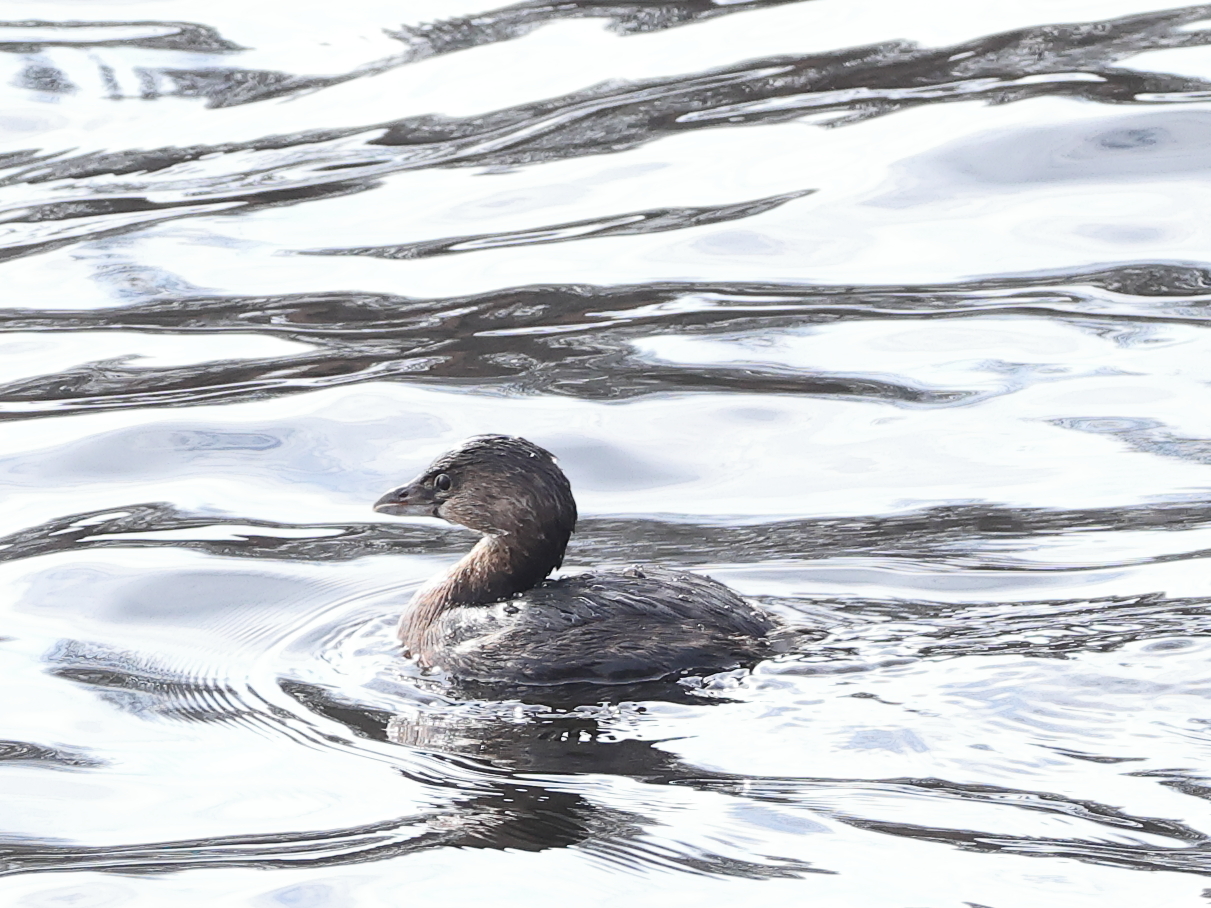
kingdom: Animalia
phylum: Chordata
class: Aves
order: Podicipediformes
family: Podicipedidae
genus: Podilymbus
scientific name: Podilymbus podiceps
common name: Pied-billed grebe
